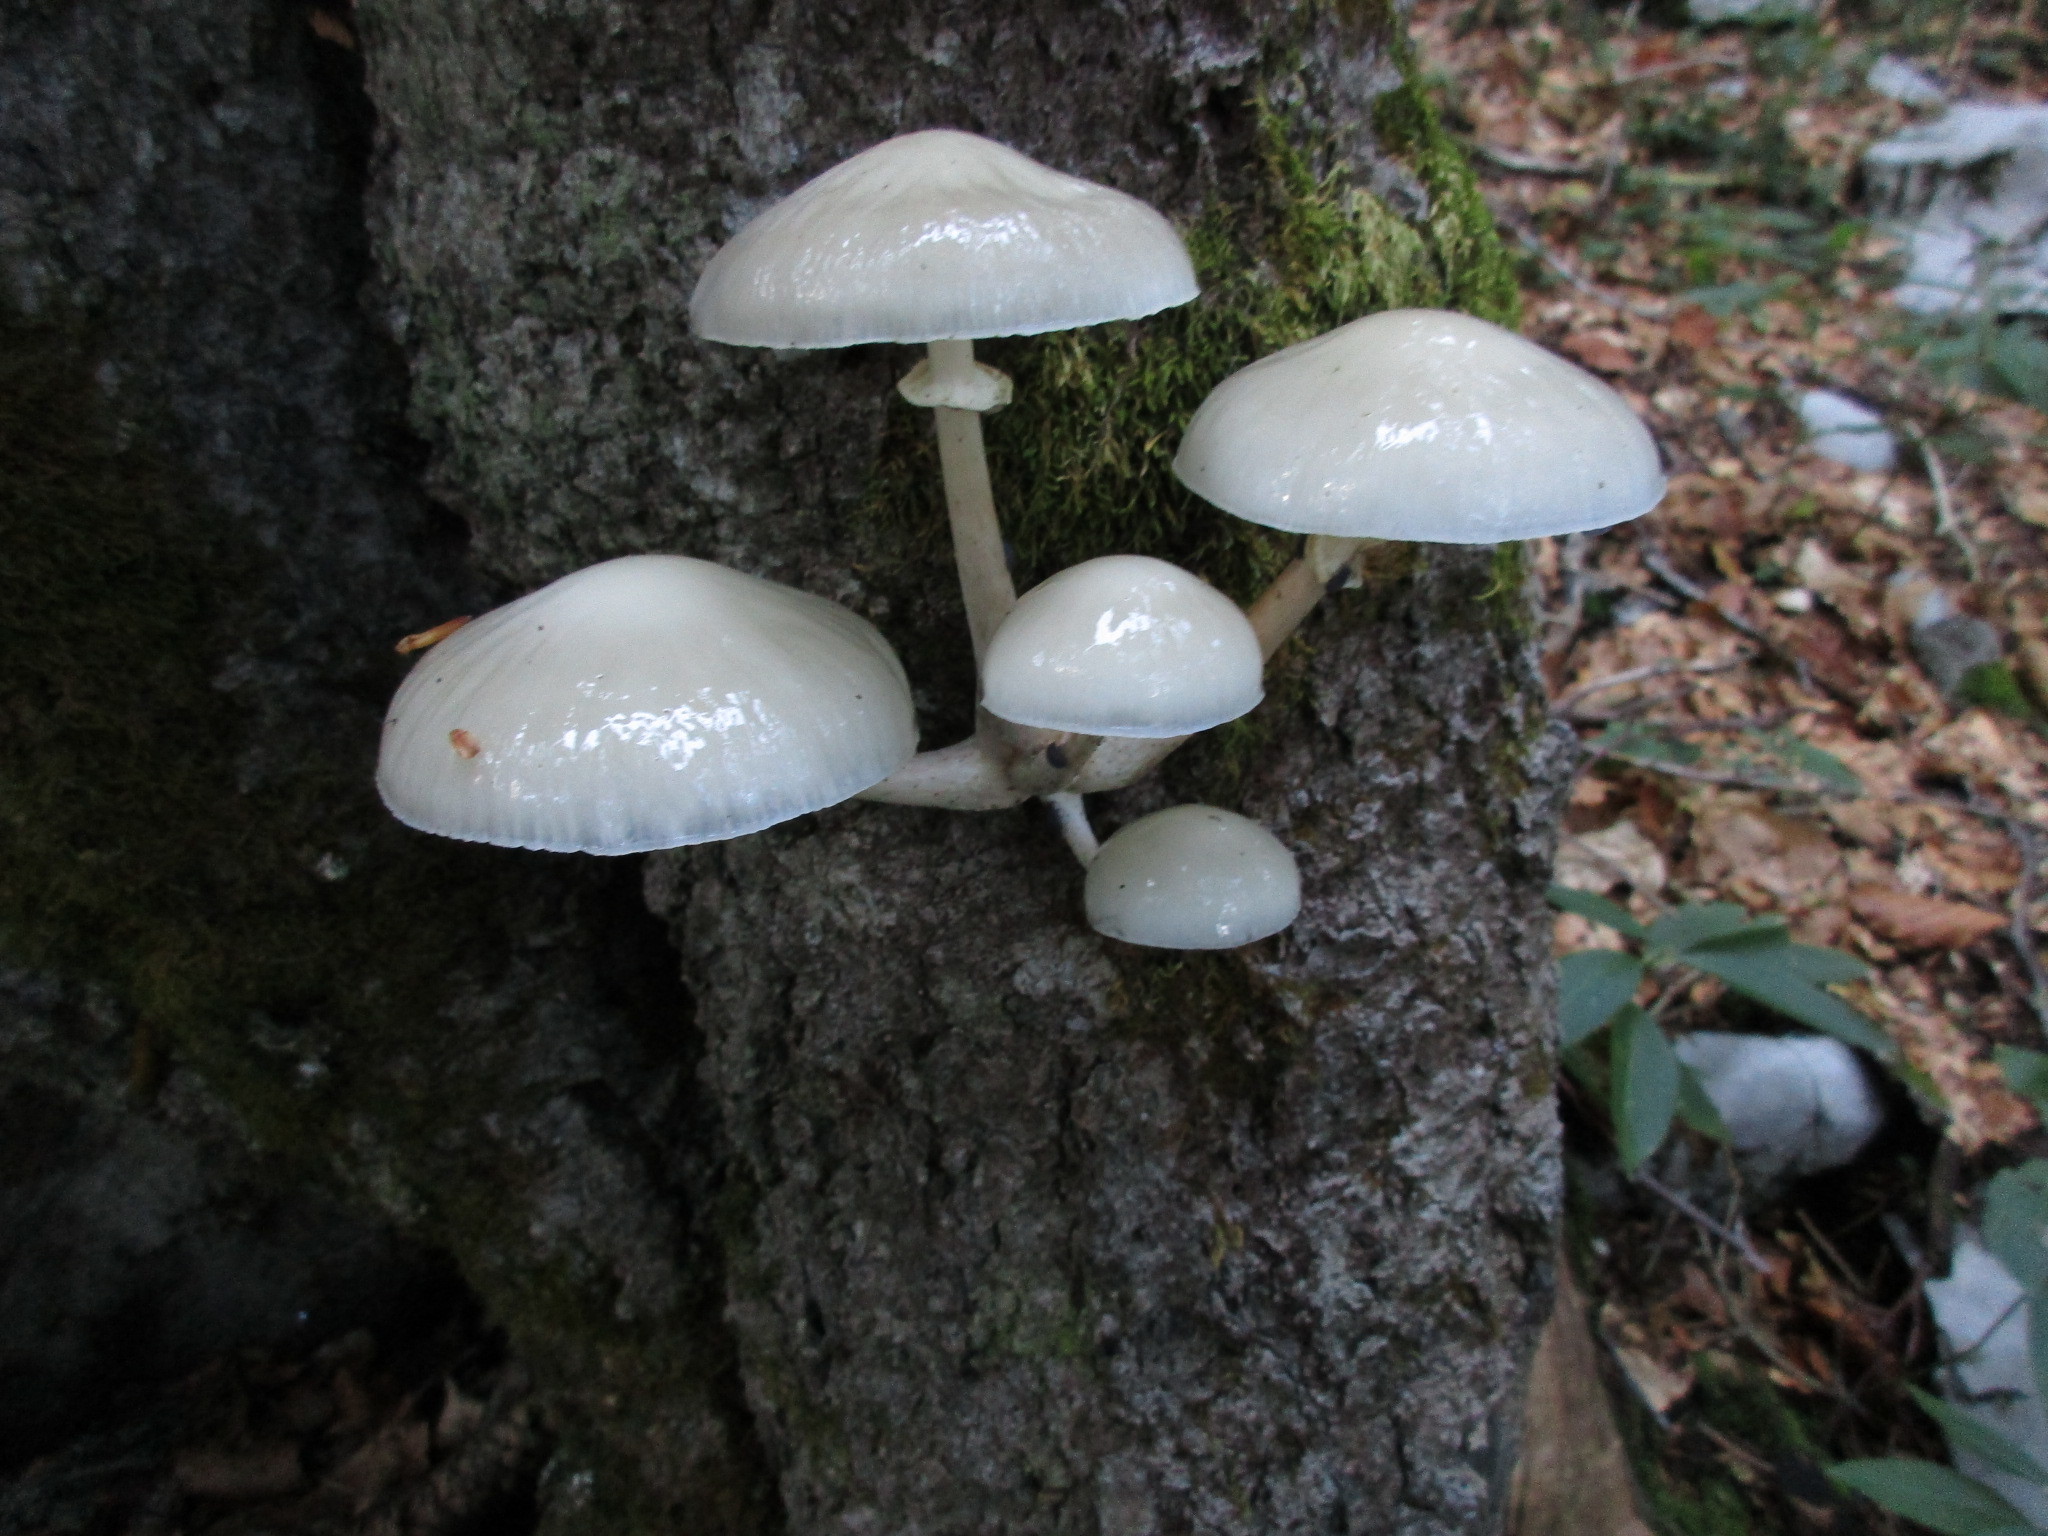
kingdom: Fungi
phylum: Basidiomycota
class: Agaricomycetes
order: Agaricales
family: Physalacriaceae
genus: Mucidula
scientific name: Mucidula mucida
